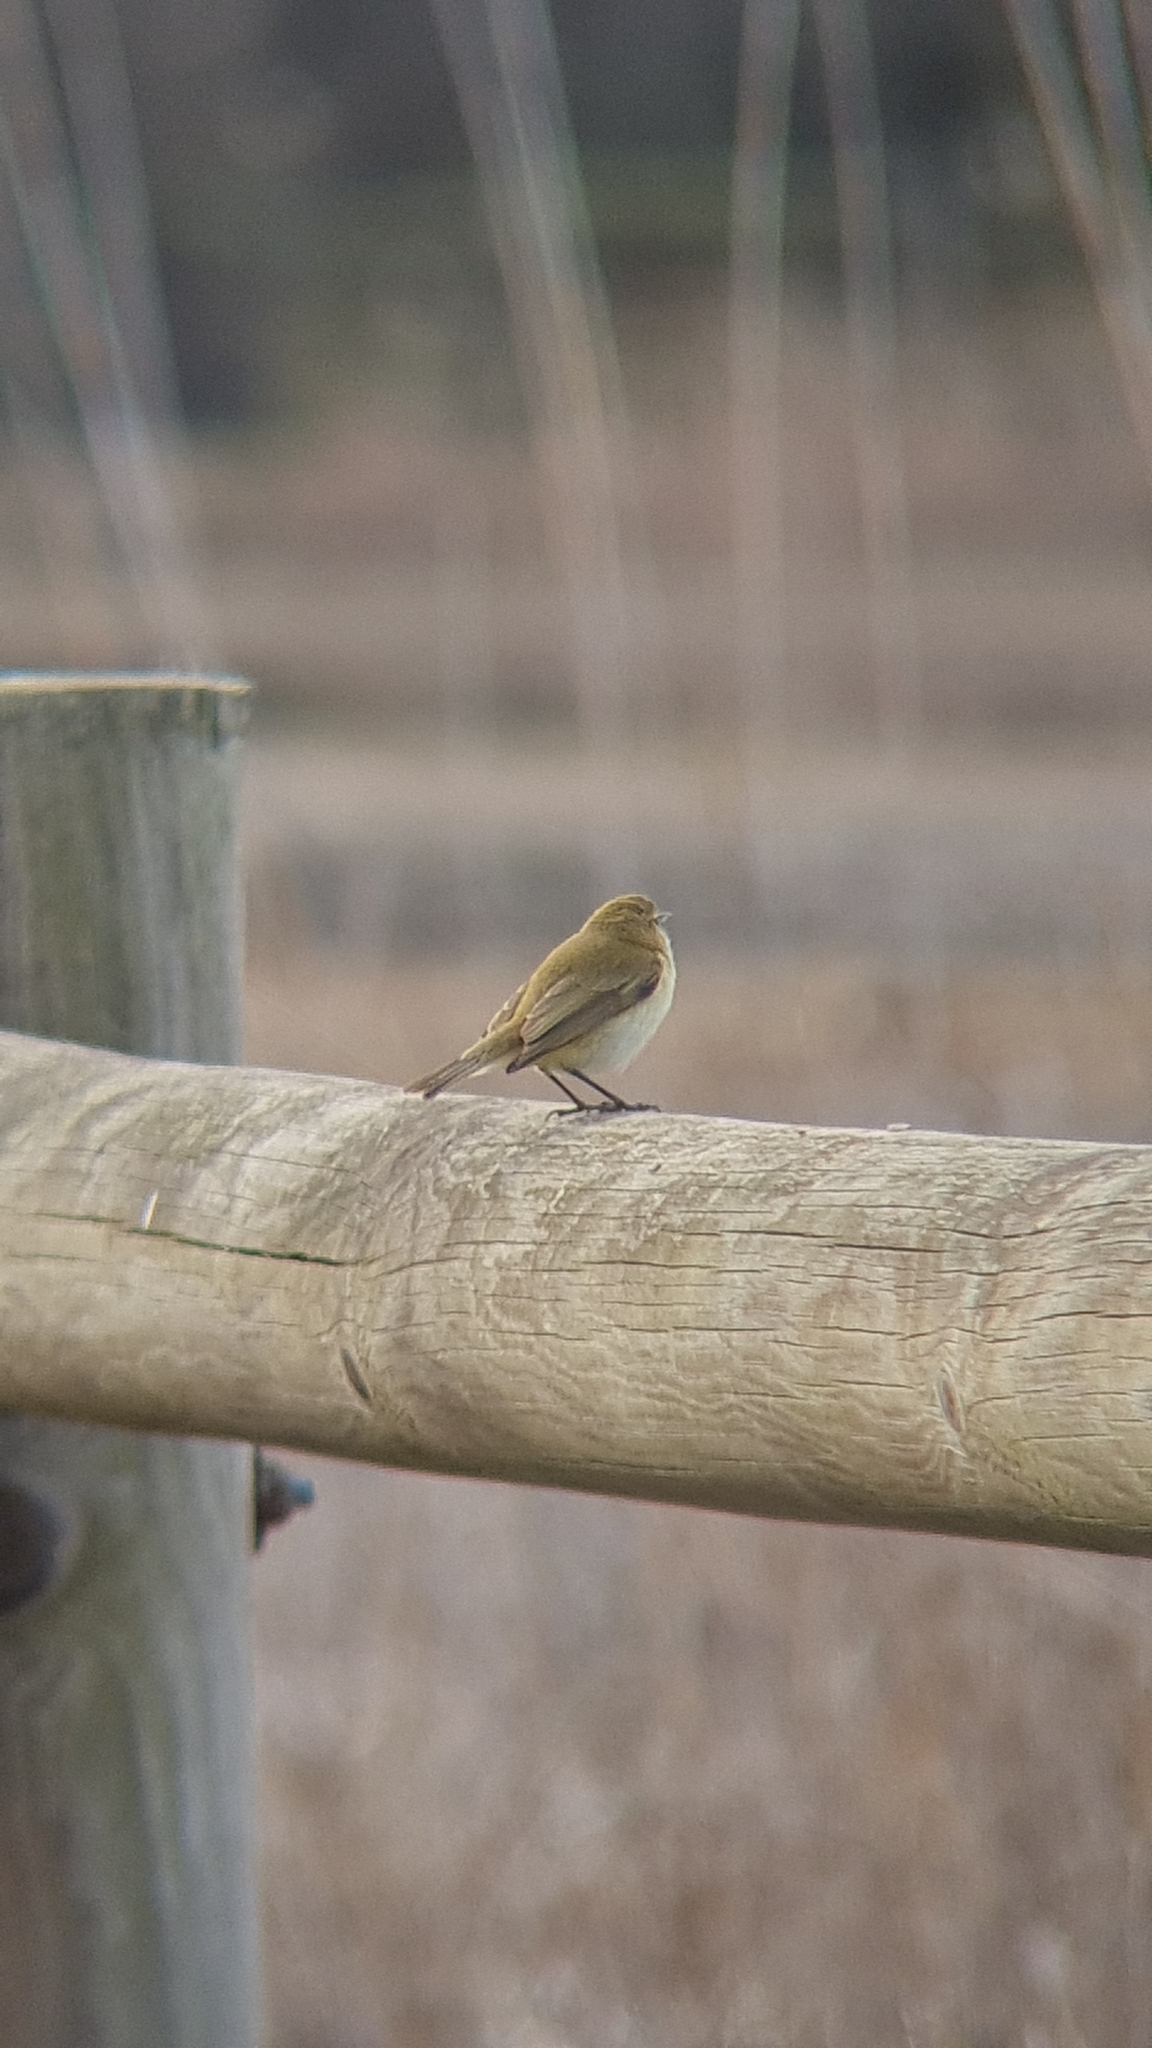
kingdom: Animalia
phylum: Chordata
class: Aves
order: Passeriformes
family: Phylloscopidae
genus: Phylloscopus
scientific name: Phylloscopus collybita
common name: Common chiffchaff
